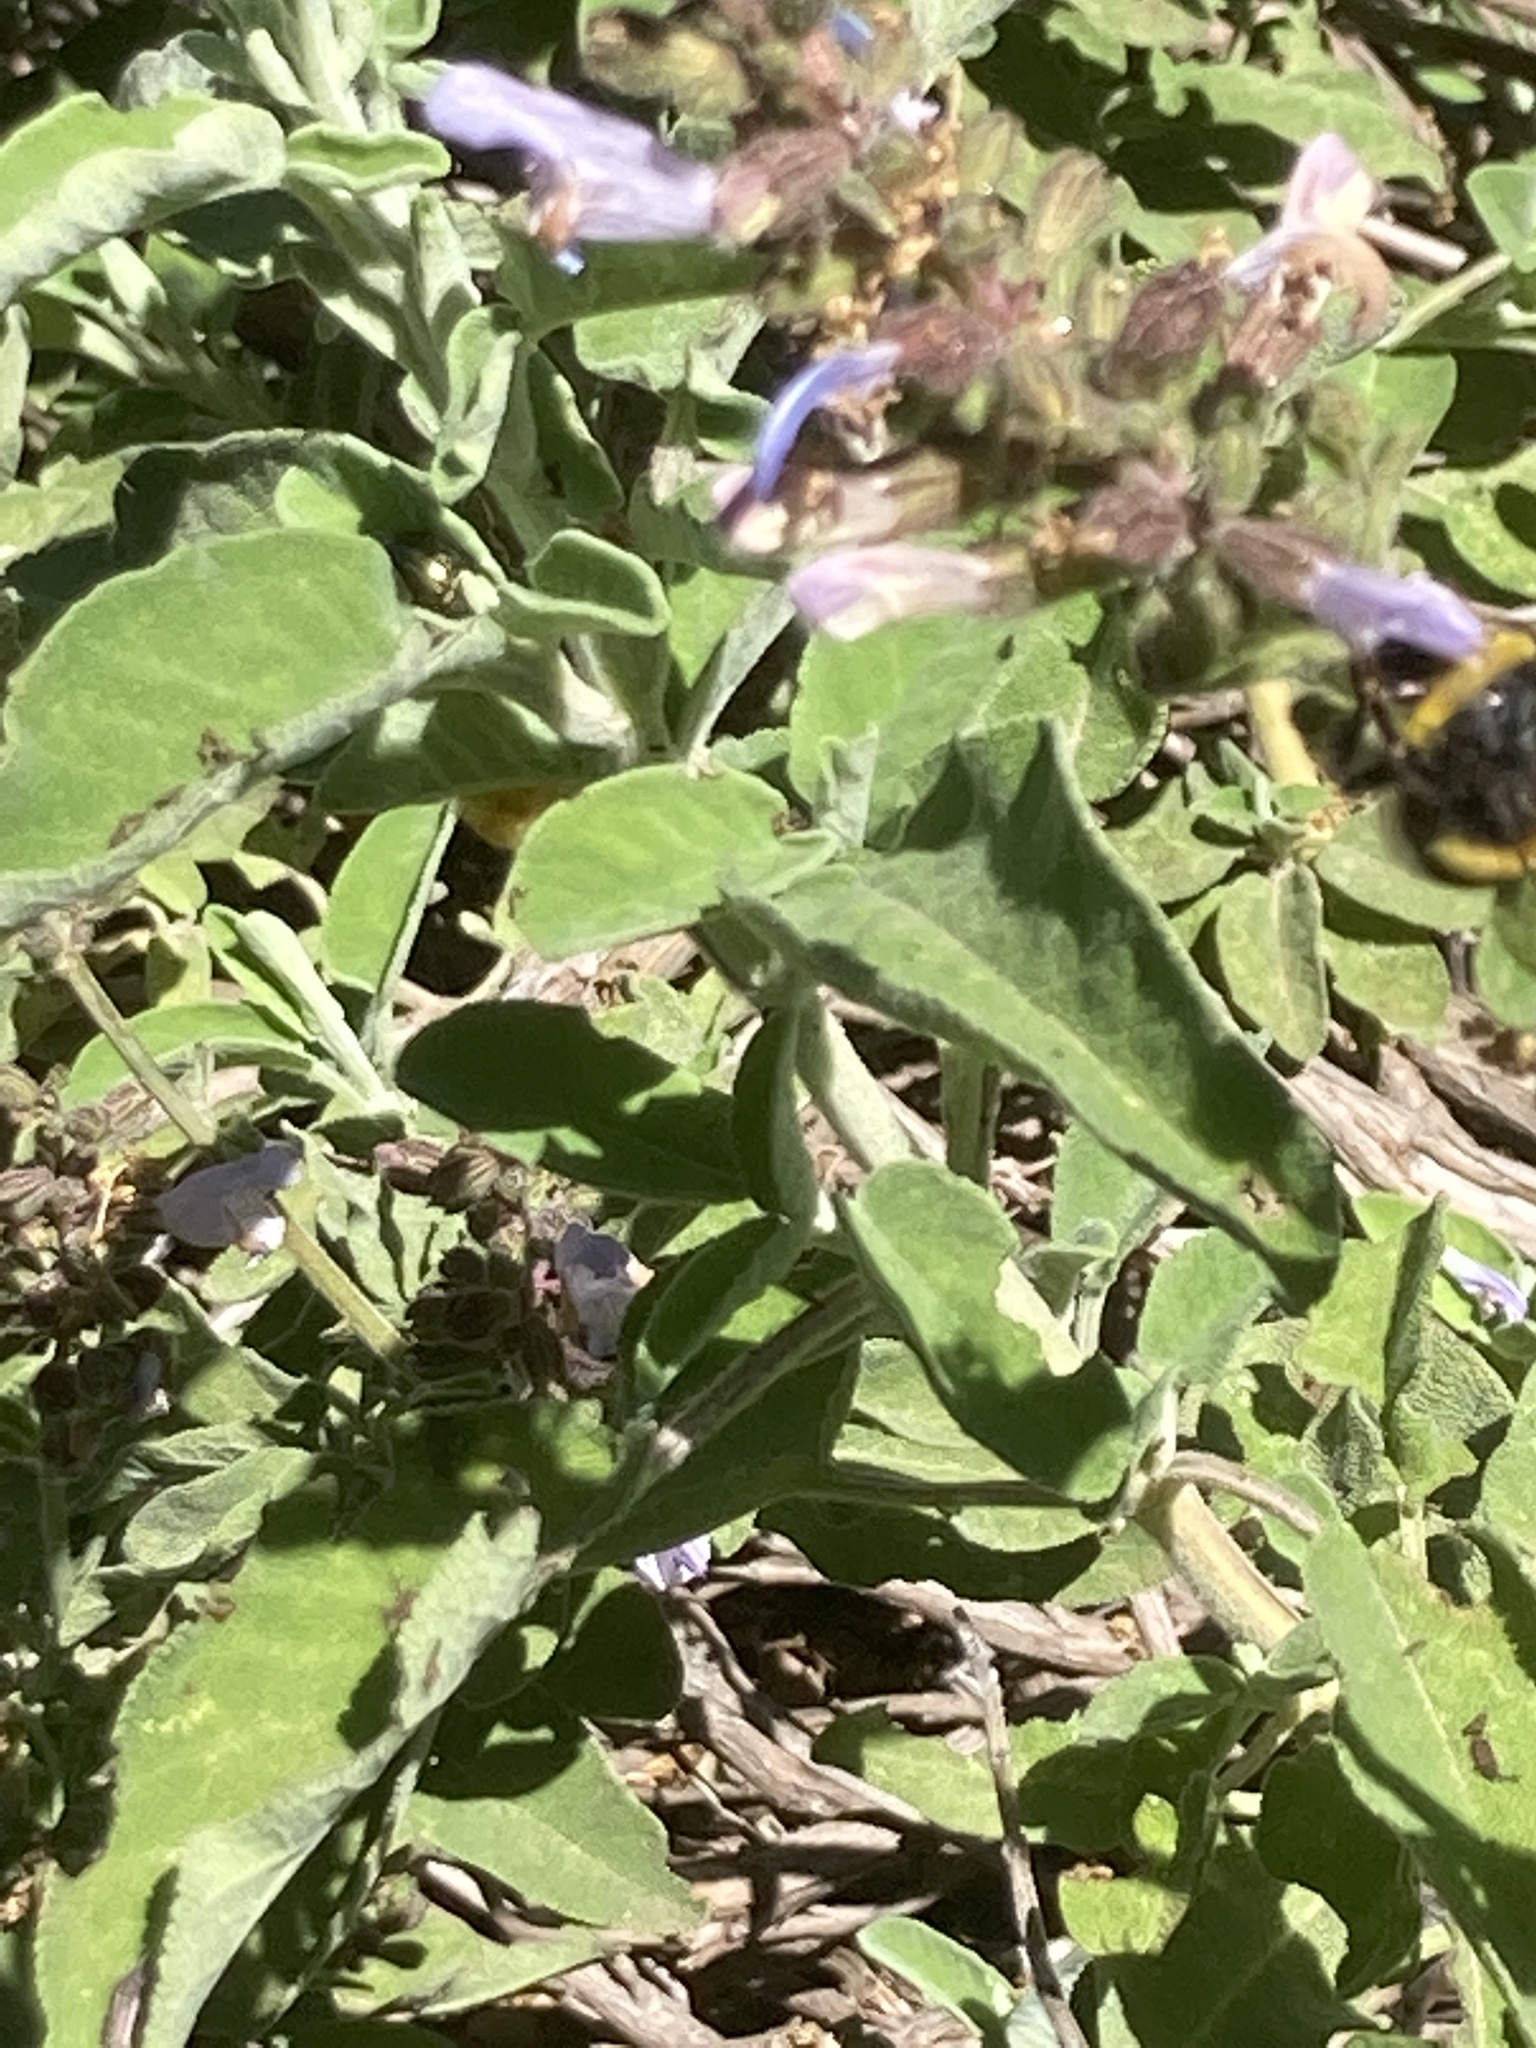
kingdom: Plantae
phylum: Tracheophyta
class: Magnoliopsida
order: Lamiales
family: Lamiaceae
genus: Salvia
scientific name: Salvia fruticosa
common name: Greek sage
